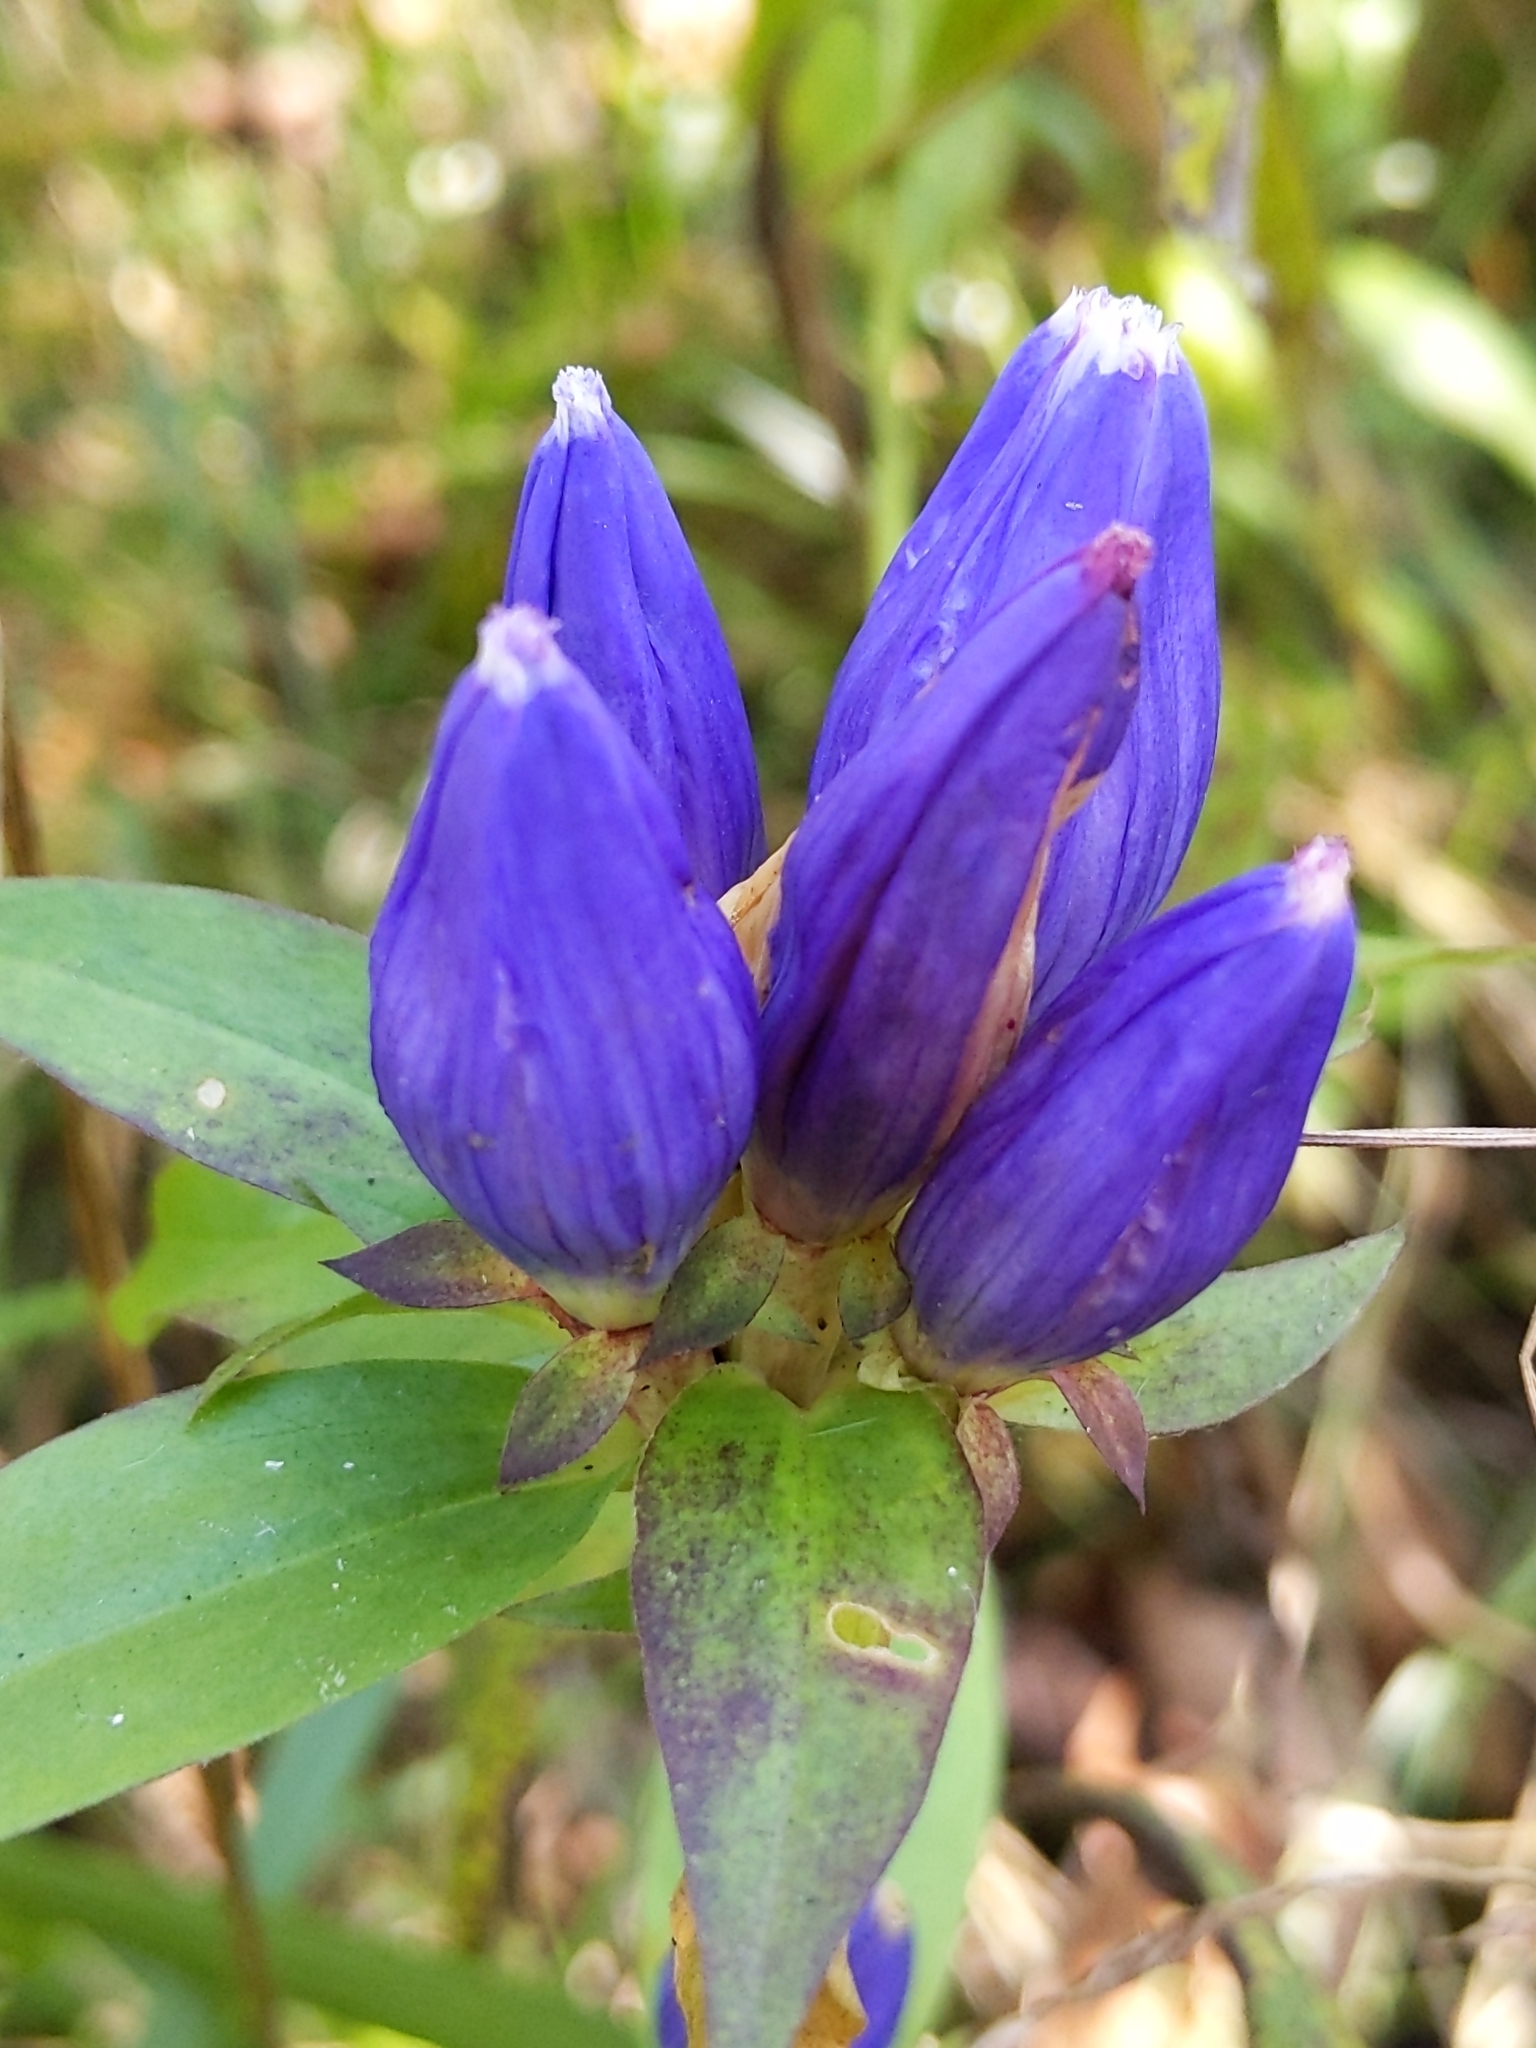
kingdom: Plantae
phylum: Tracheophyta
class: Magnoliopsida
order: Gentianales
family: Gentianaceae
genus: Gentiana
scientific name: Gentiana andrewsii
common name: Bottle gentian
